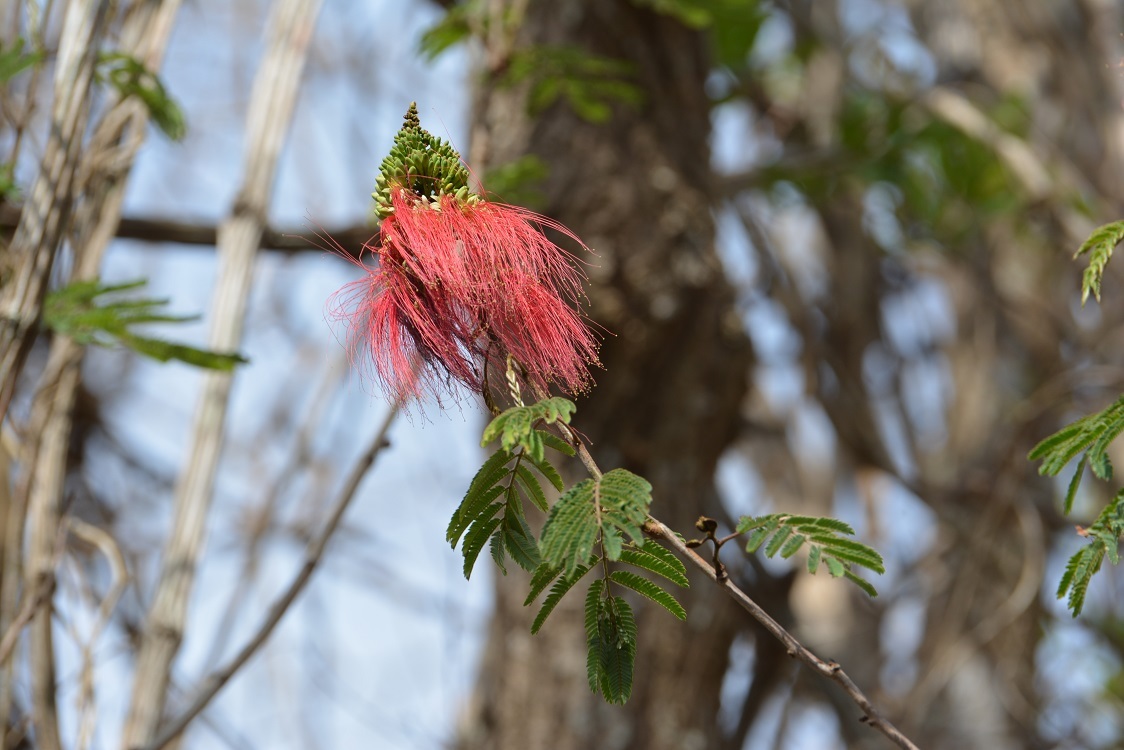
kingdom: Plantae
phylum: Tracheophyta
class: Magnoliopsida
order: Fabales
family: Fabaceae
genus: Calliandra
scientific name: Calliandra houstoniana
